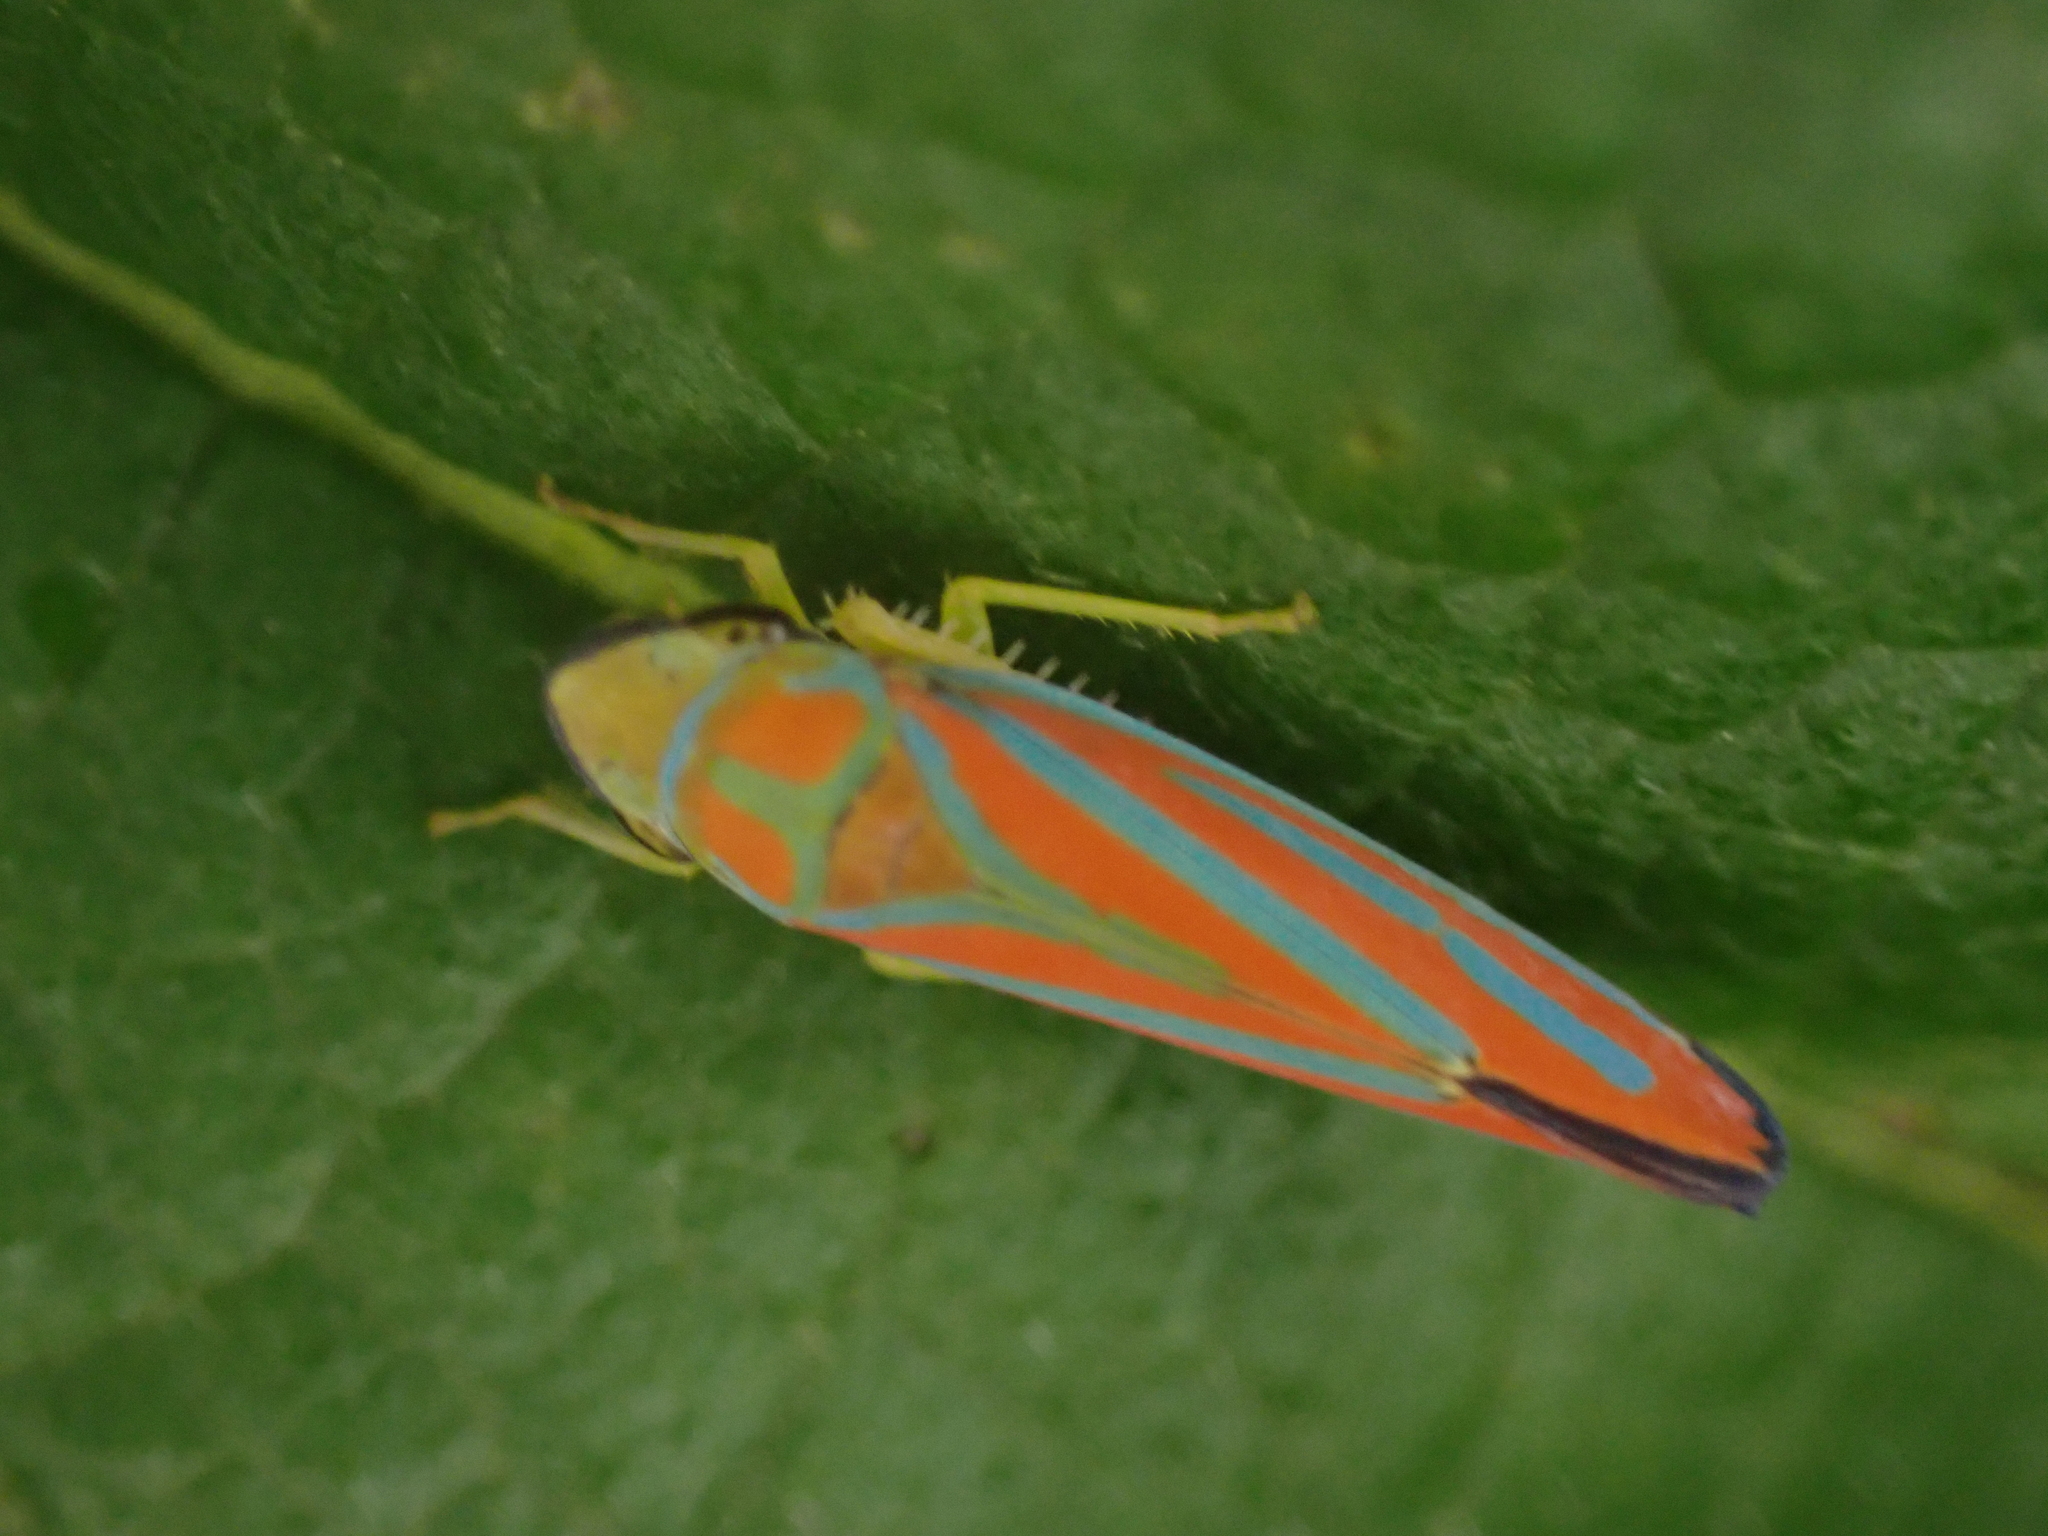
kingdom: Animalia
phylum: Arthropoda
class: Insecta
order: Hemiptera
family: Cicadellidae
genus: Graphocephala
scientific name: Graphocephala coccinea
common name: Candy-striped leafhopper
